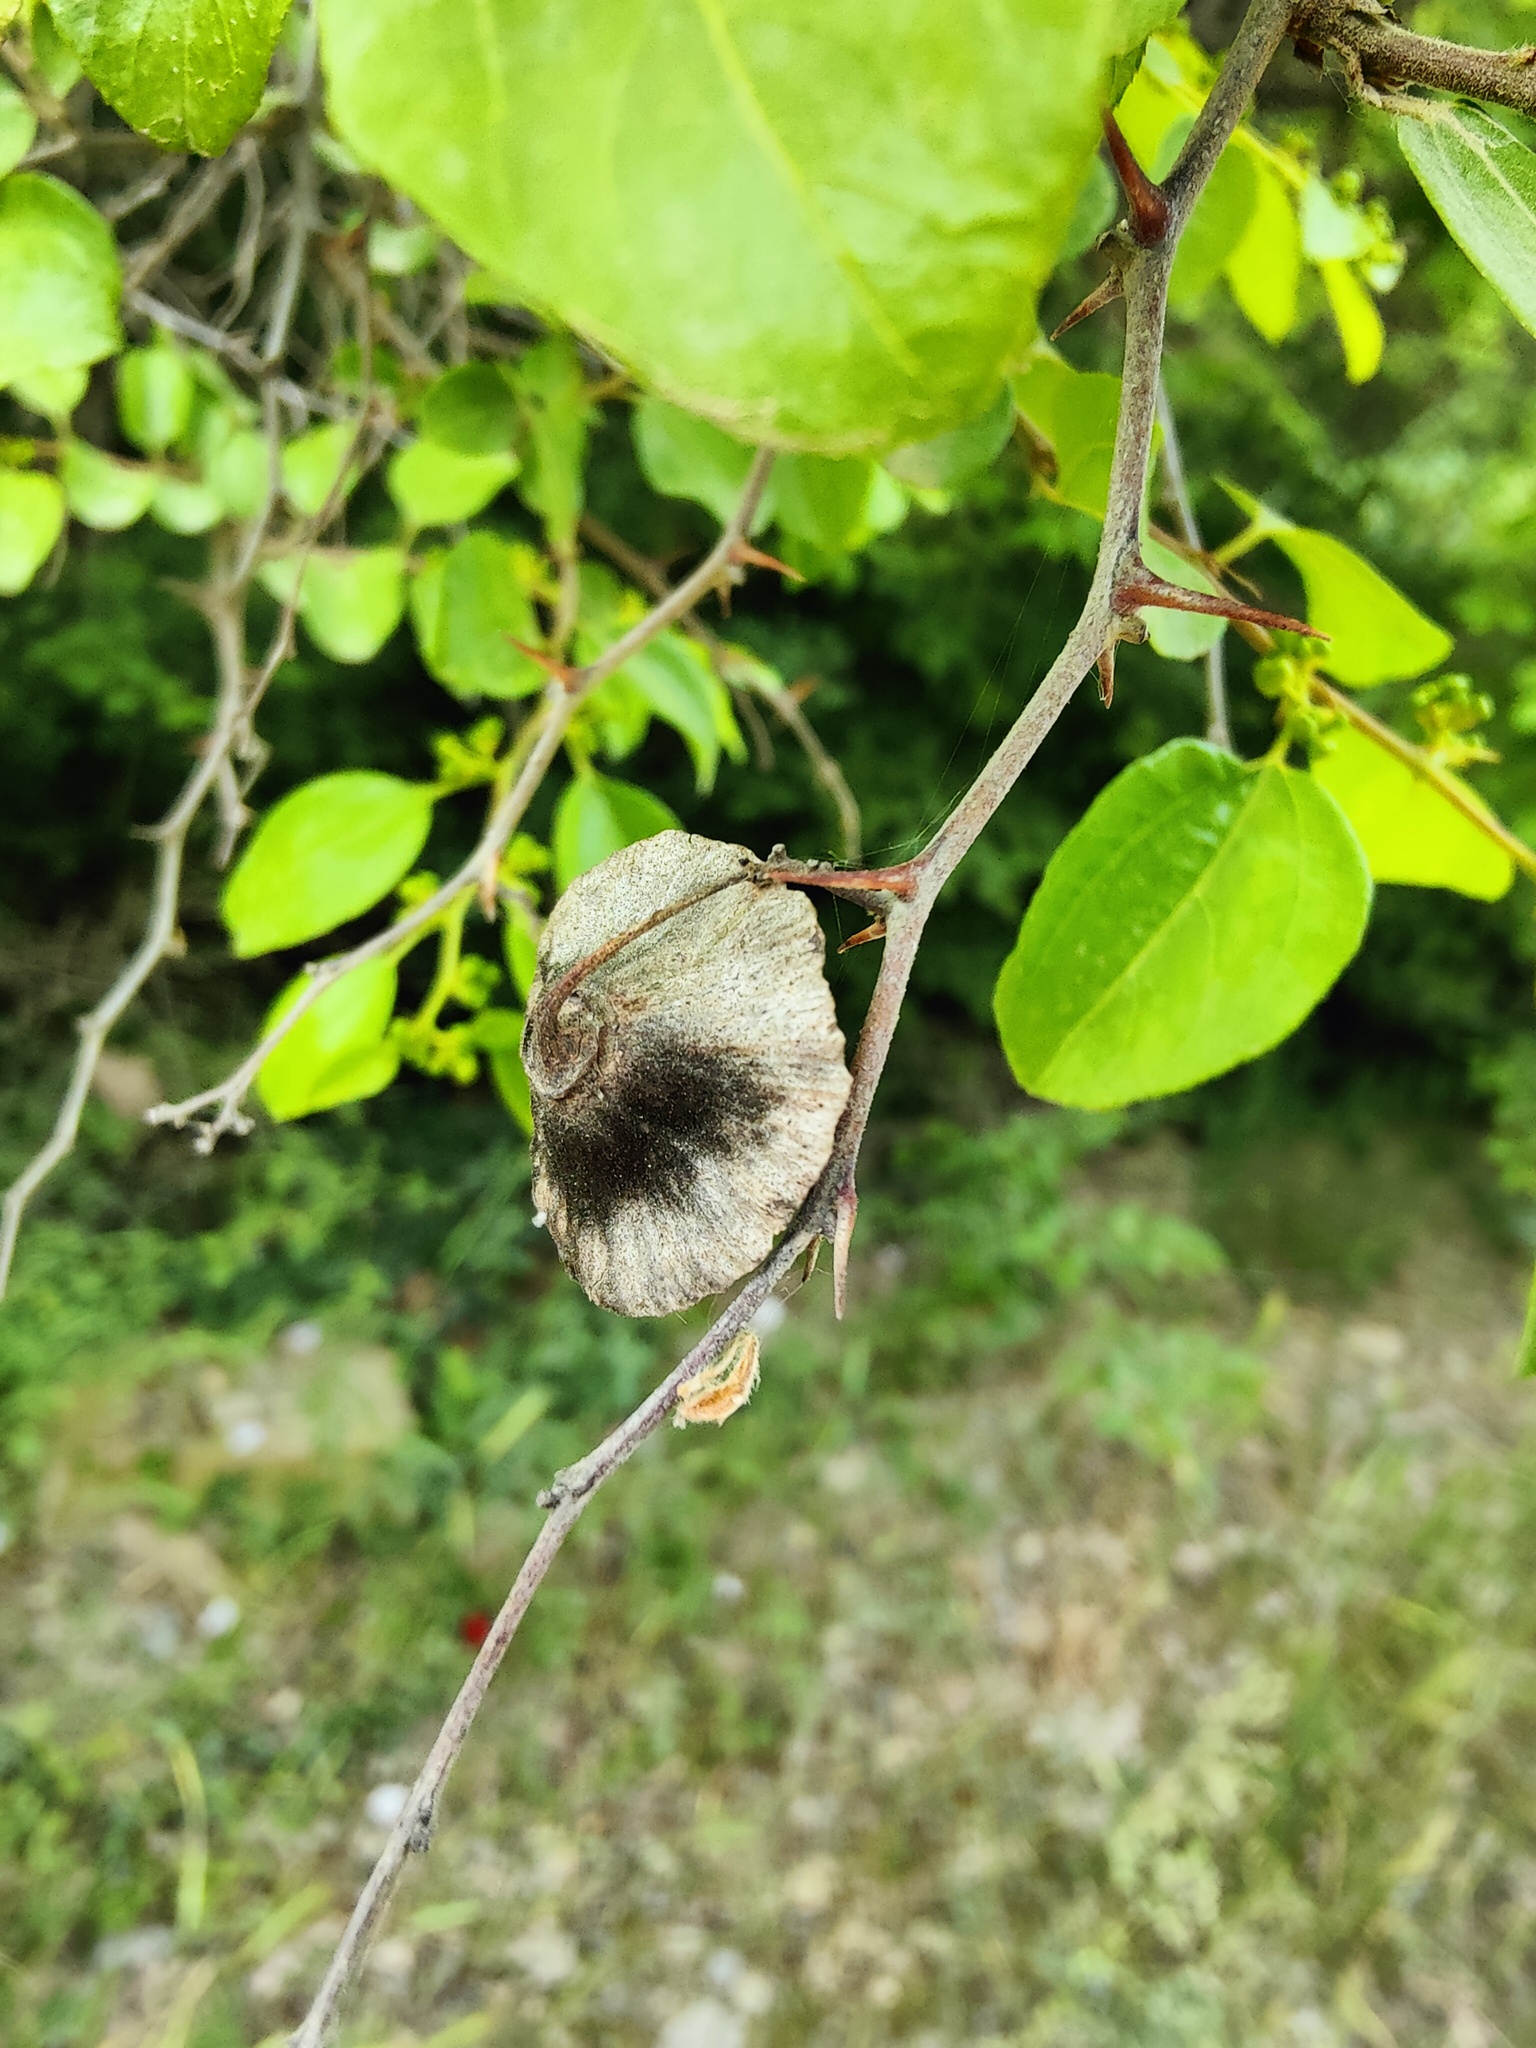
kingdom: Plantae
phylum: Tracheophyta
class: Magnoliopsida
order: Rosales
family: Rhamnaceae
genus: Paliurus
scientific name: Paliurus spina-christi
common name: Jeruselem thorn
